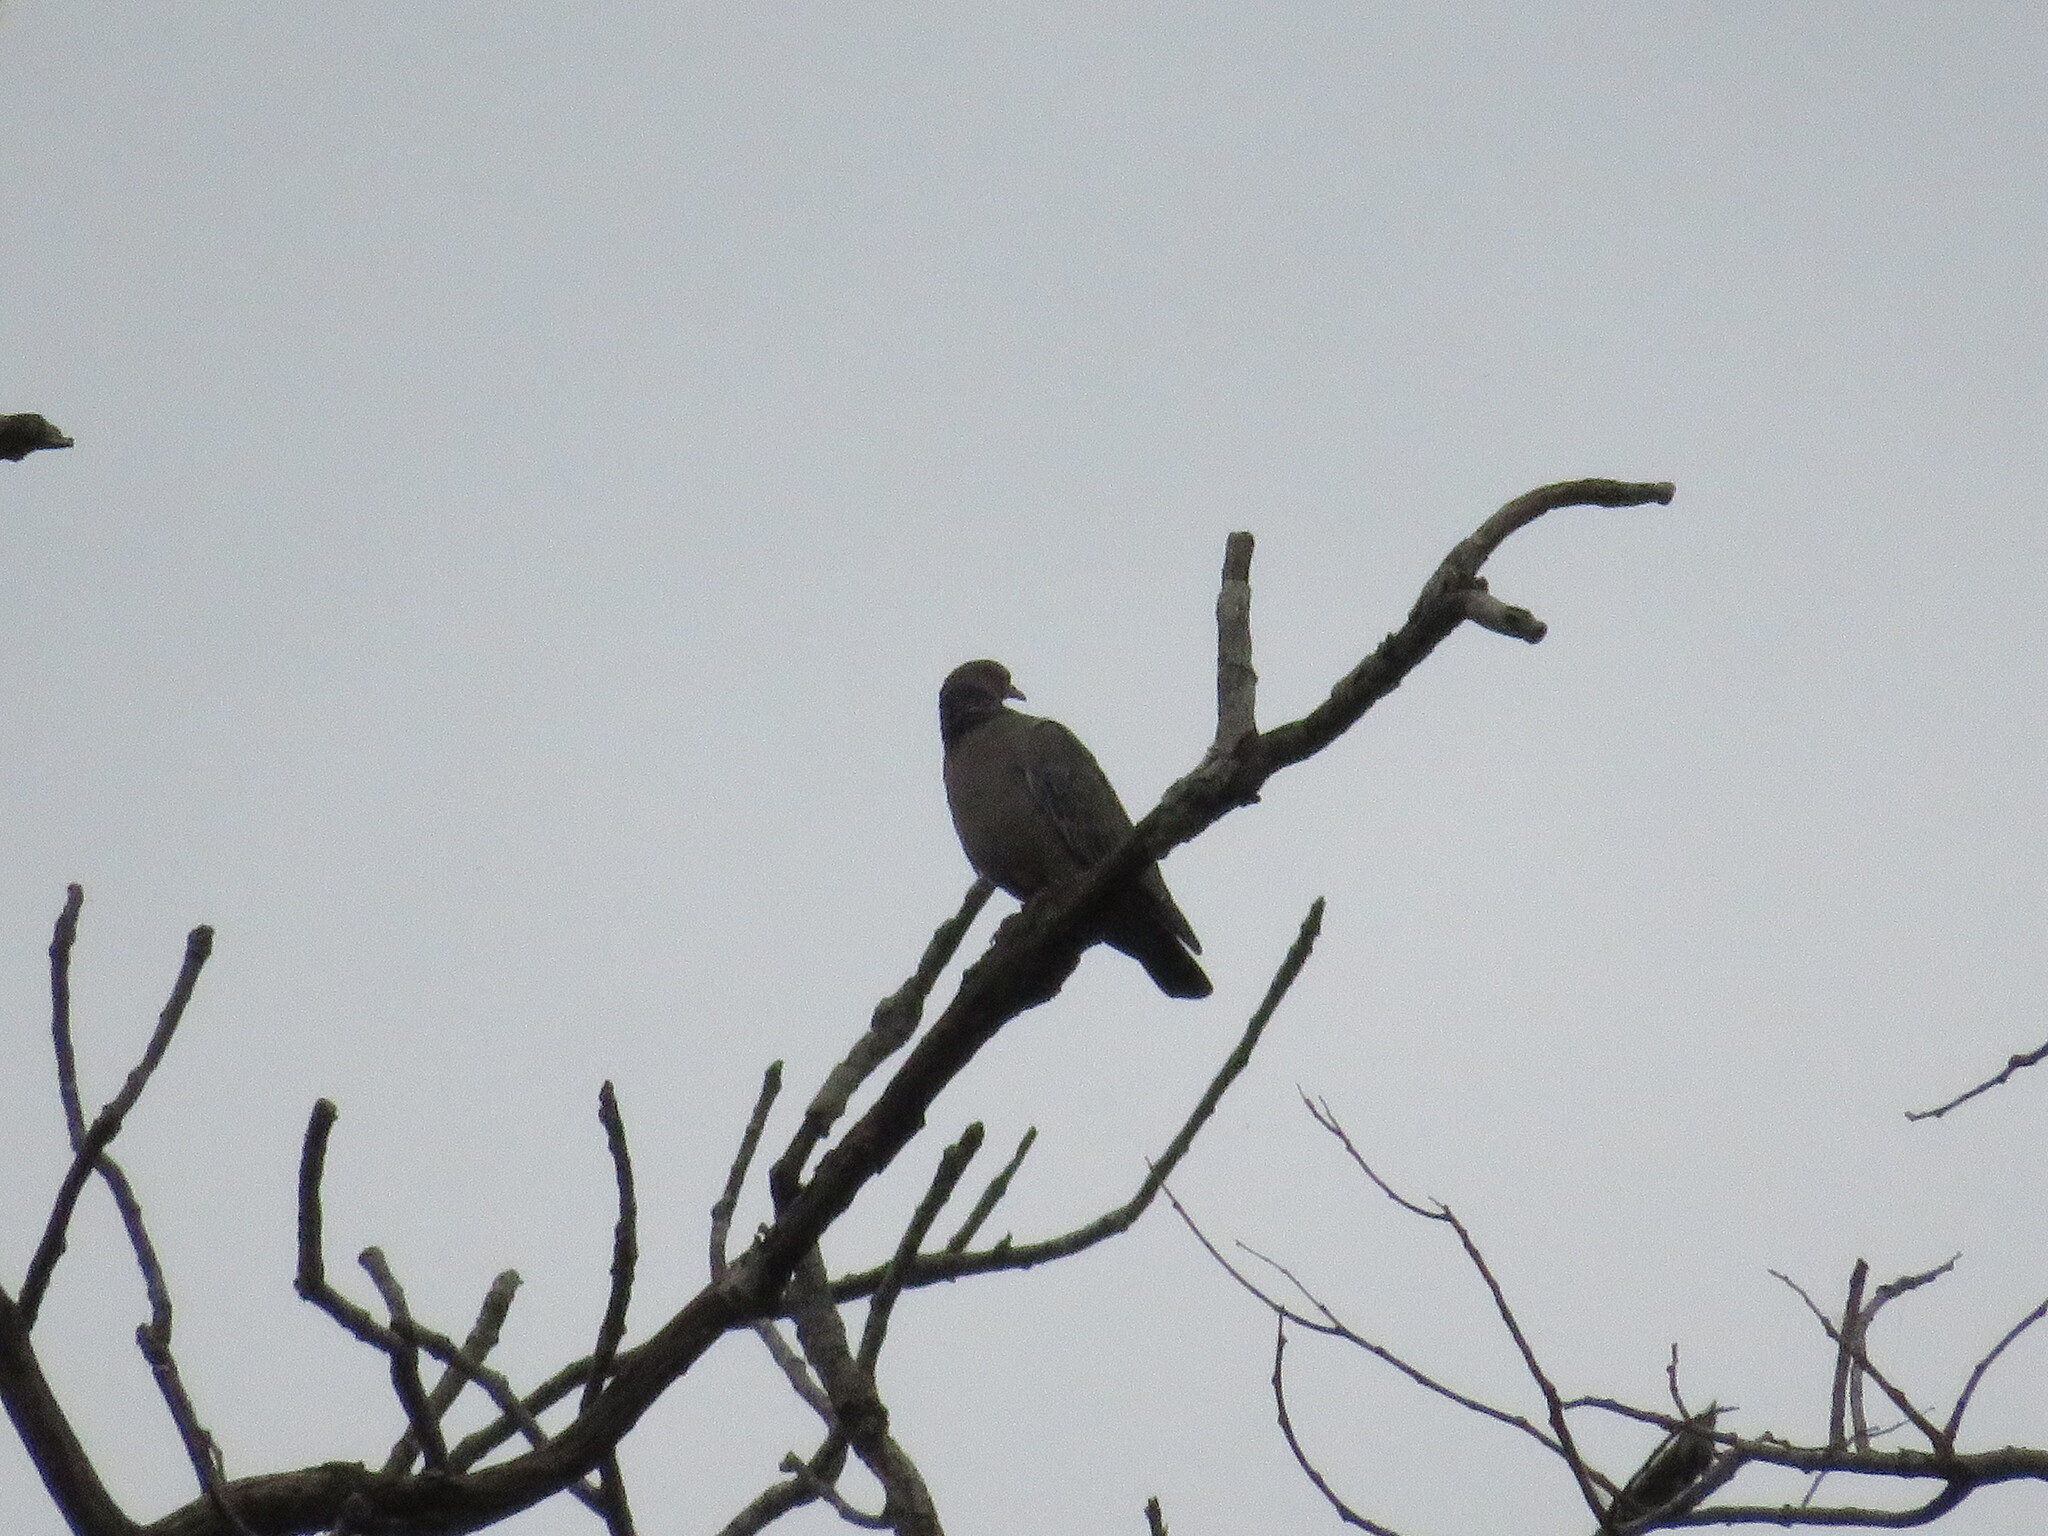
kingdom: Animalia
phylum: Chordata
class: Aves
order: Columbiformes
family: Columbidae
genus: Patagioenas
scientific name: Patagioenas picazuro
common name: Picazuro pigeon
